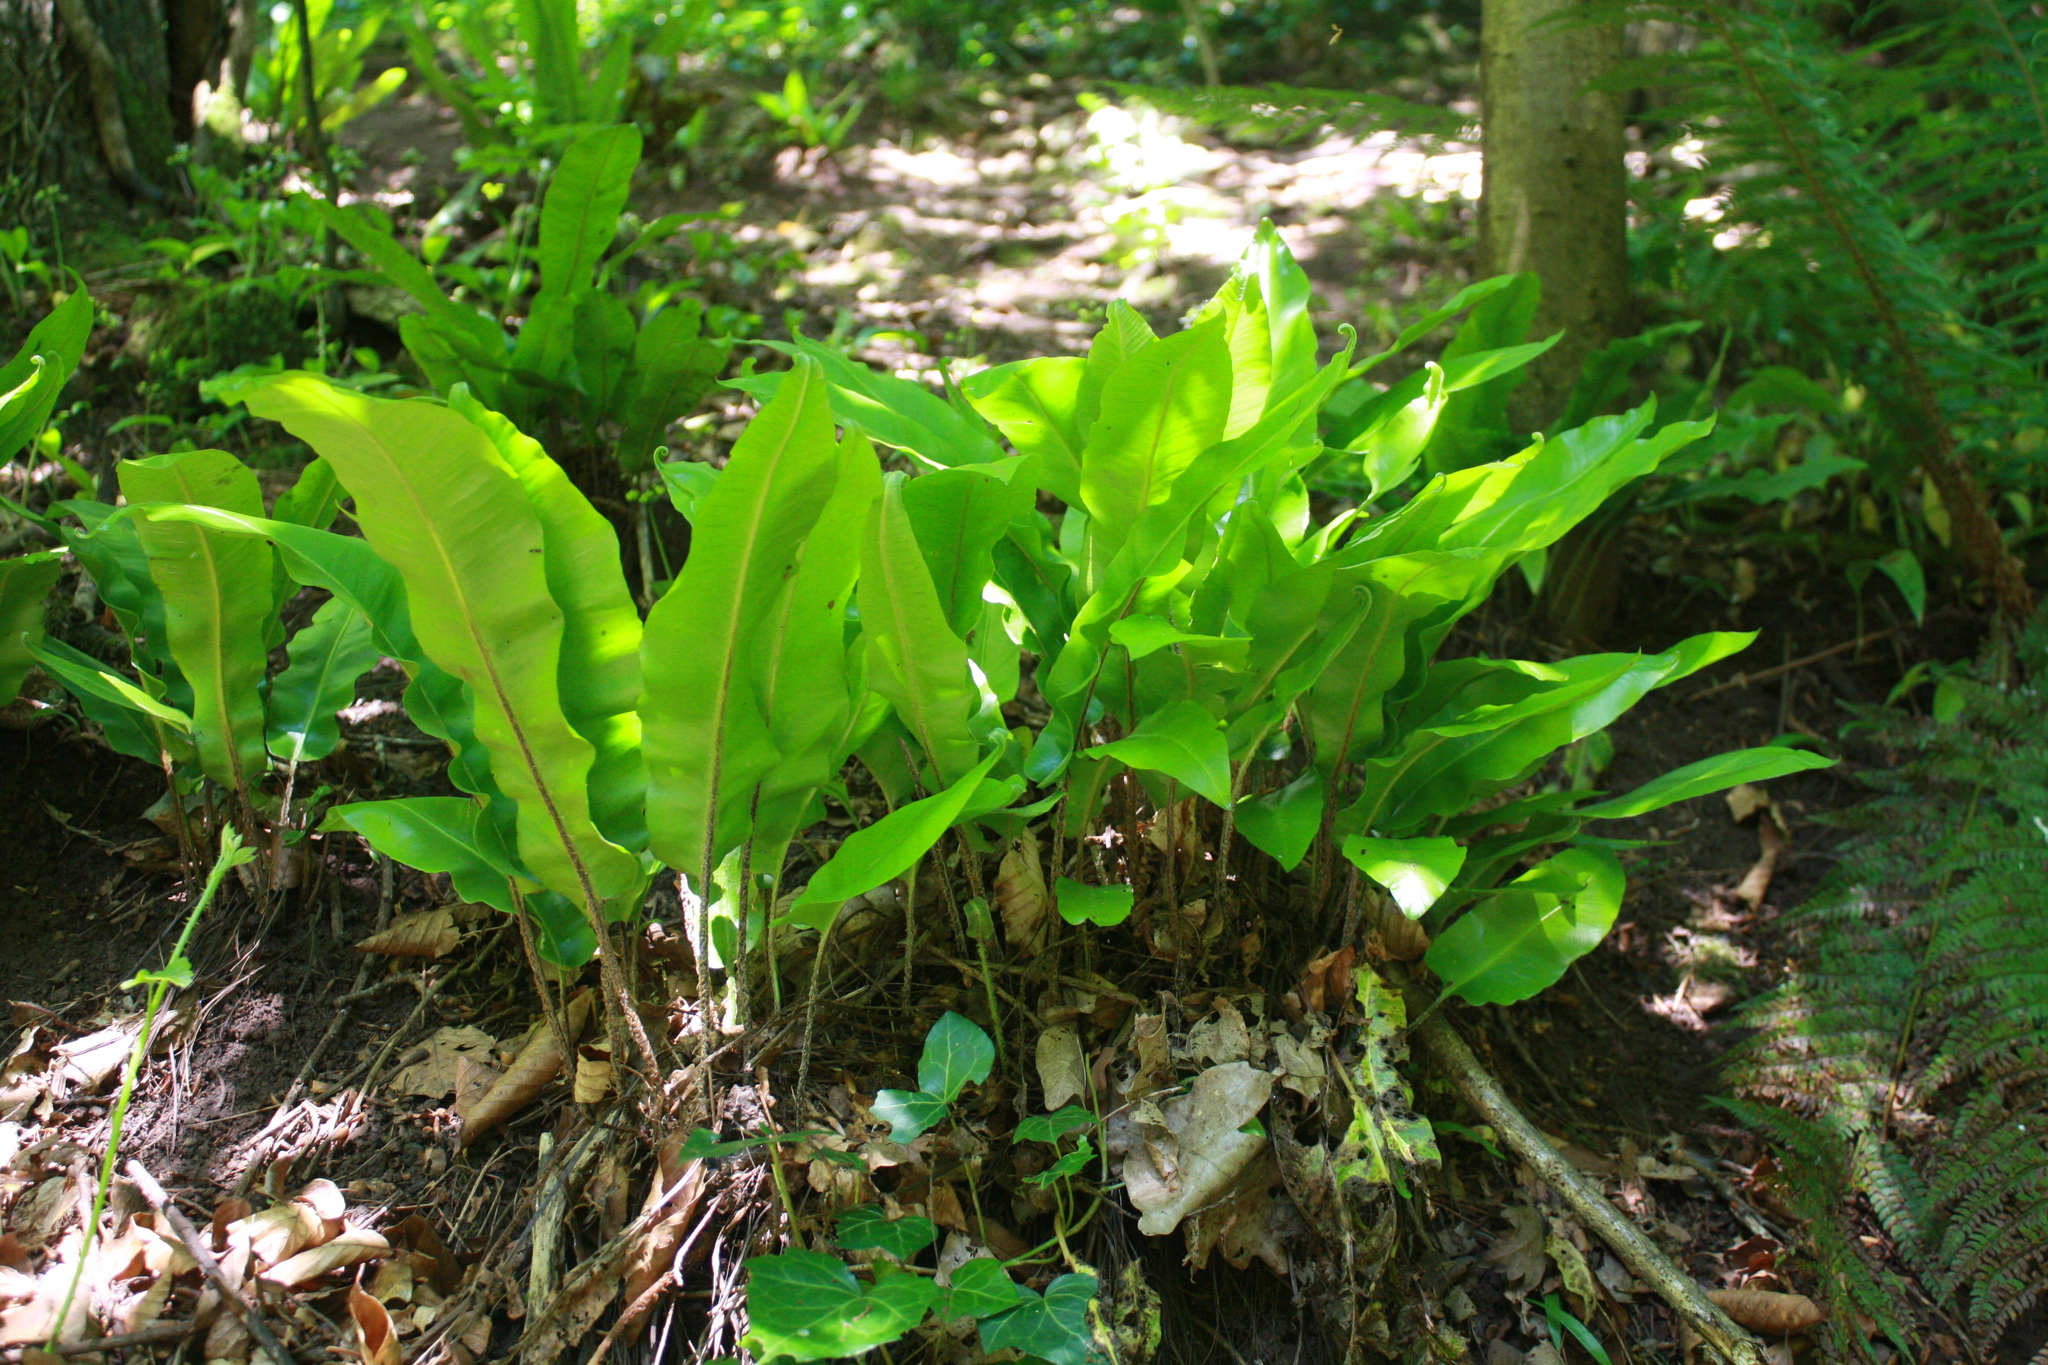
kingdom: Plantae
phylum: Tracheophyta
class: Polypodiopsida
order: Polypodiales
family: Aspleniaceae
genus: Asplenium
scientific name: Asplenium scolopendrium
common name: Hart's-tongue fern
